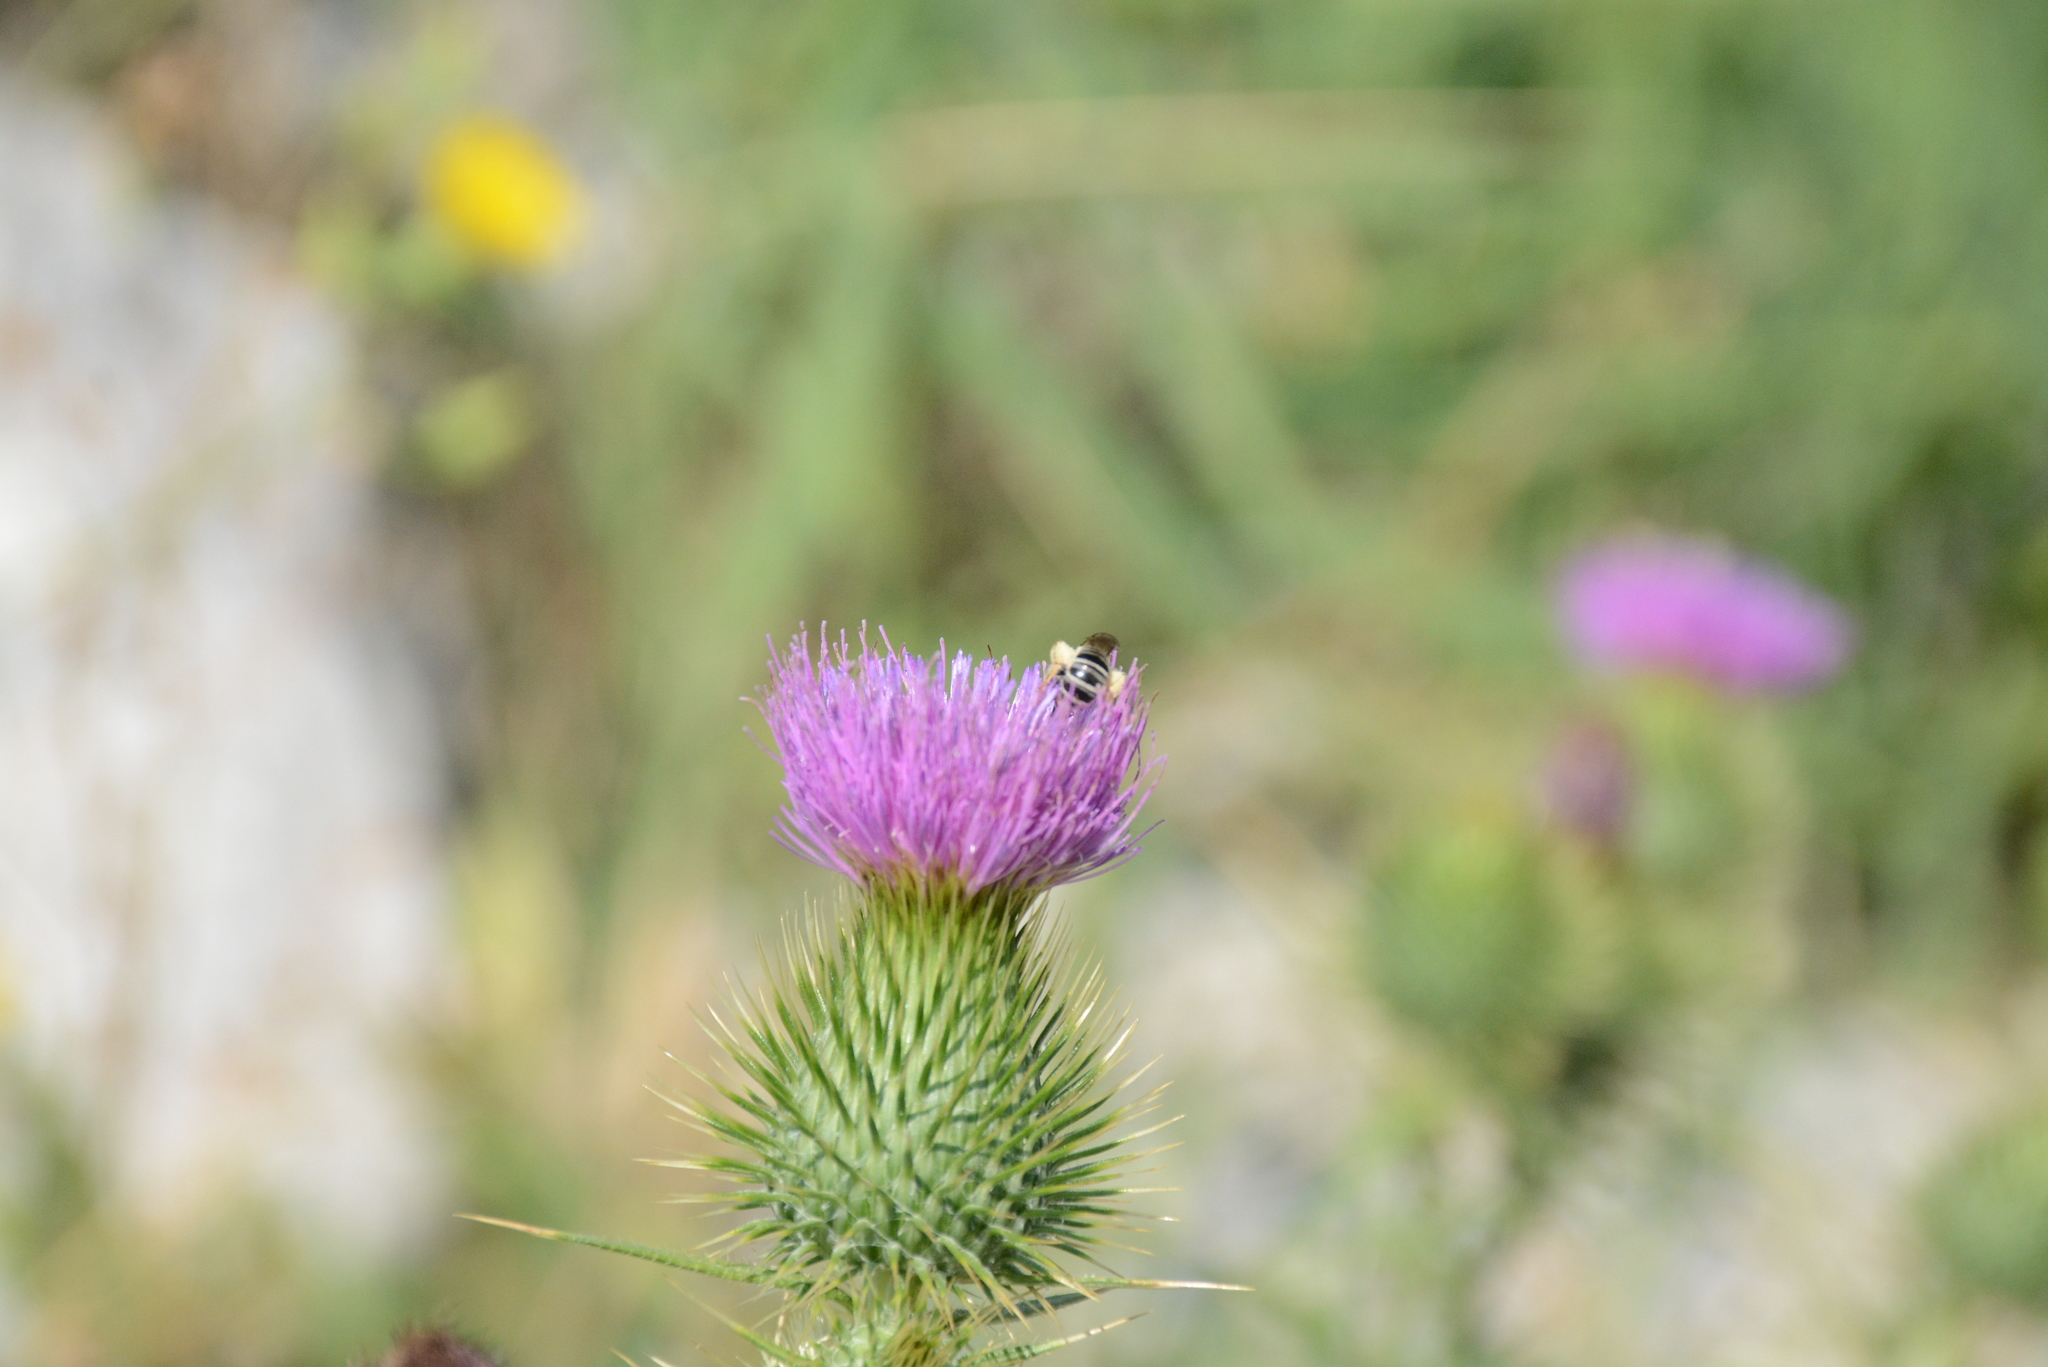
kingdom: Plantae
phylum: Tracheophyta
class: Magnoliopsida
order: Asterales
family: Asteraceae
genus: Cirsium
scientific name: Cirsium vulgare
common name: Bull thistle
